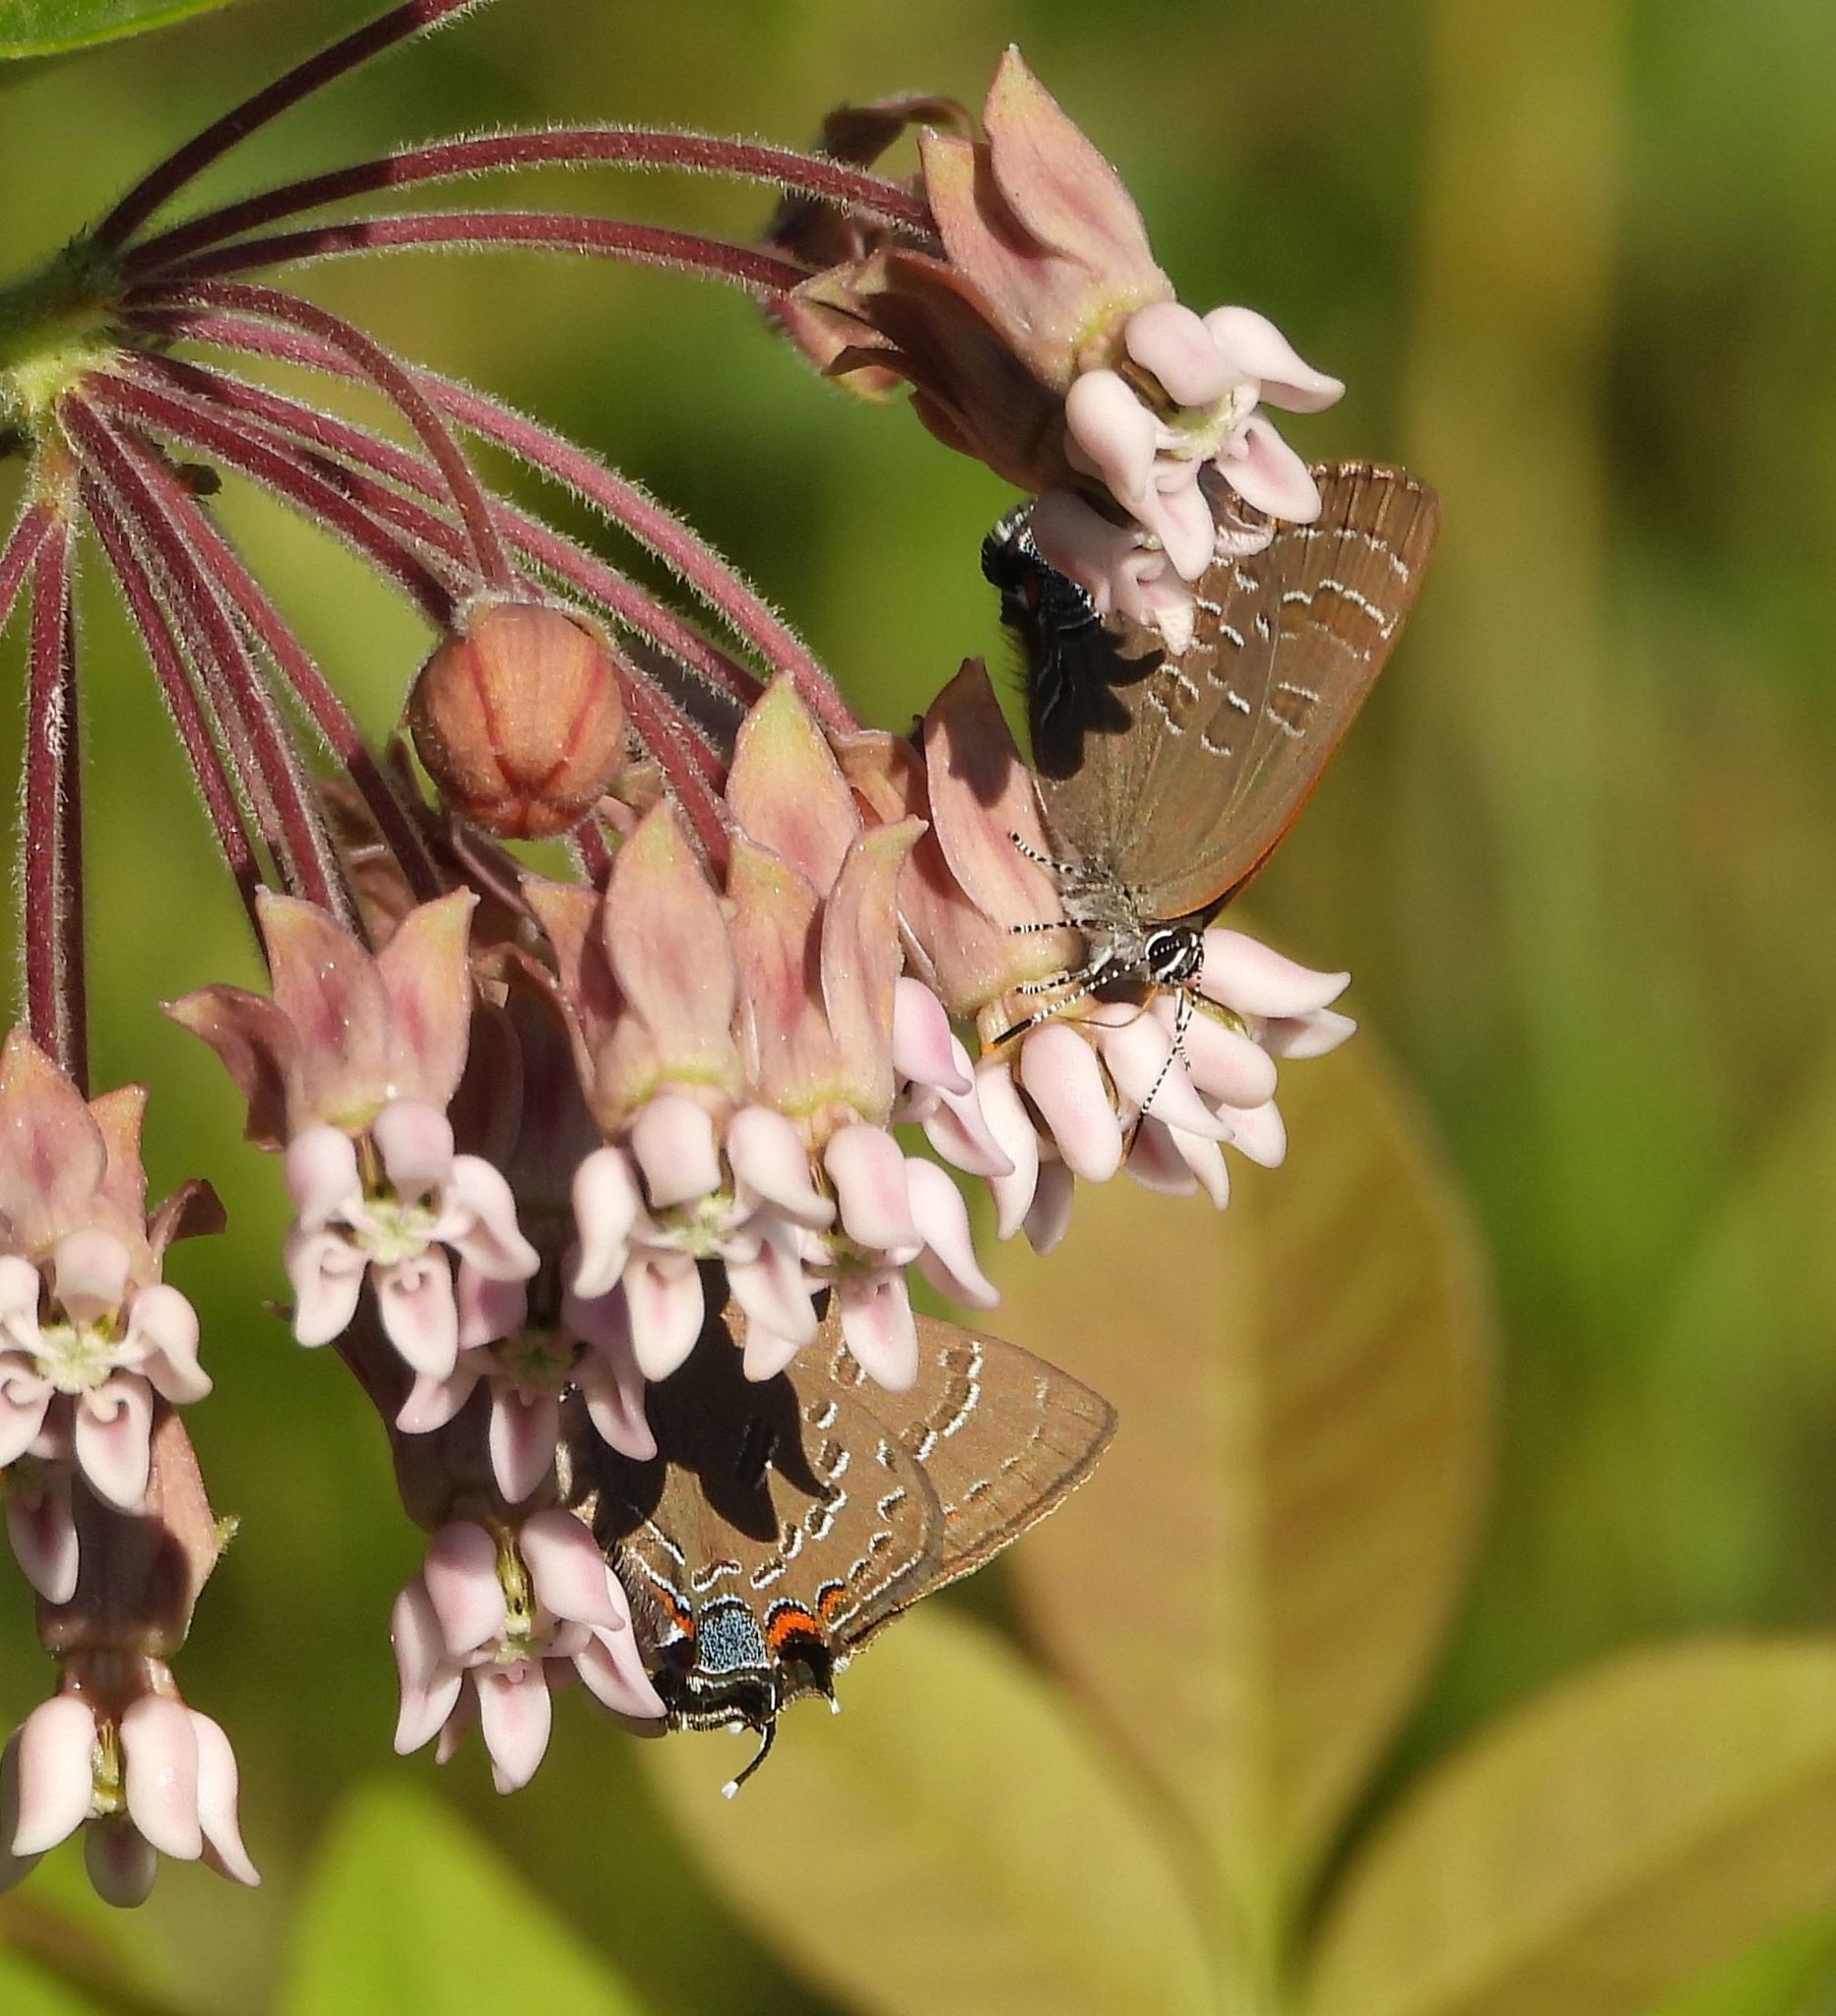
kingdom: Animalia
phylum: Arthropoda
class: Insecta
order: Lepidoptera
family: Lycaenidae
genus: Satyrium
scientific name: Satyrium calanus
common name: Banded hairstreak
